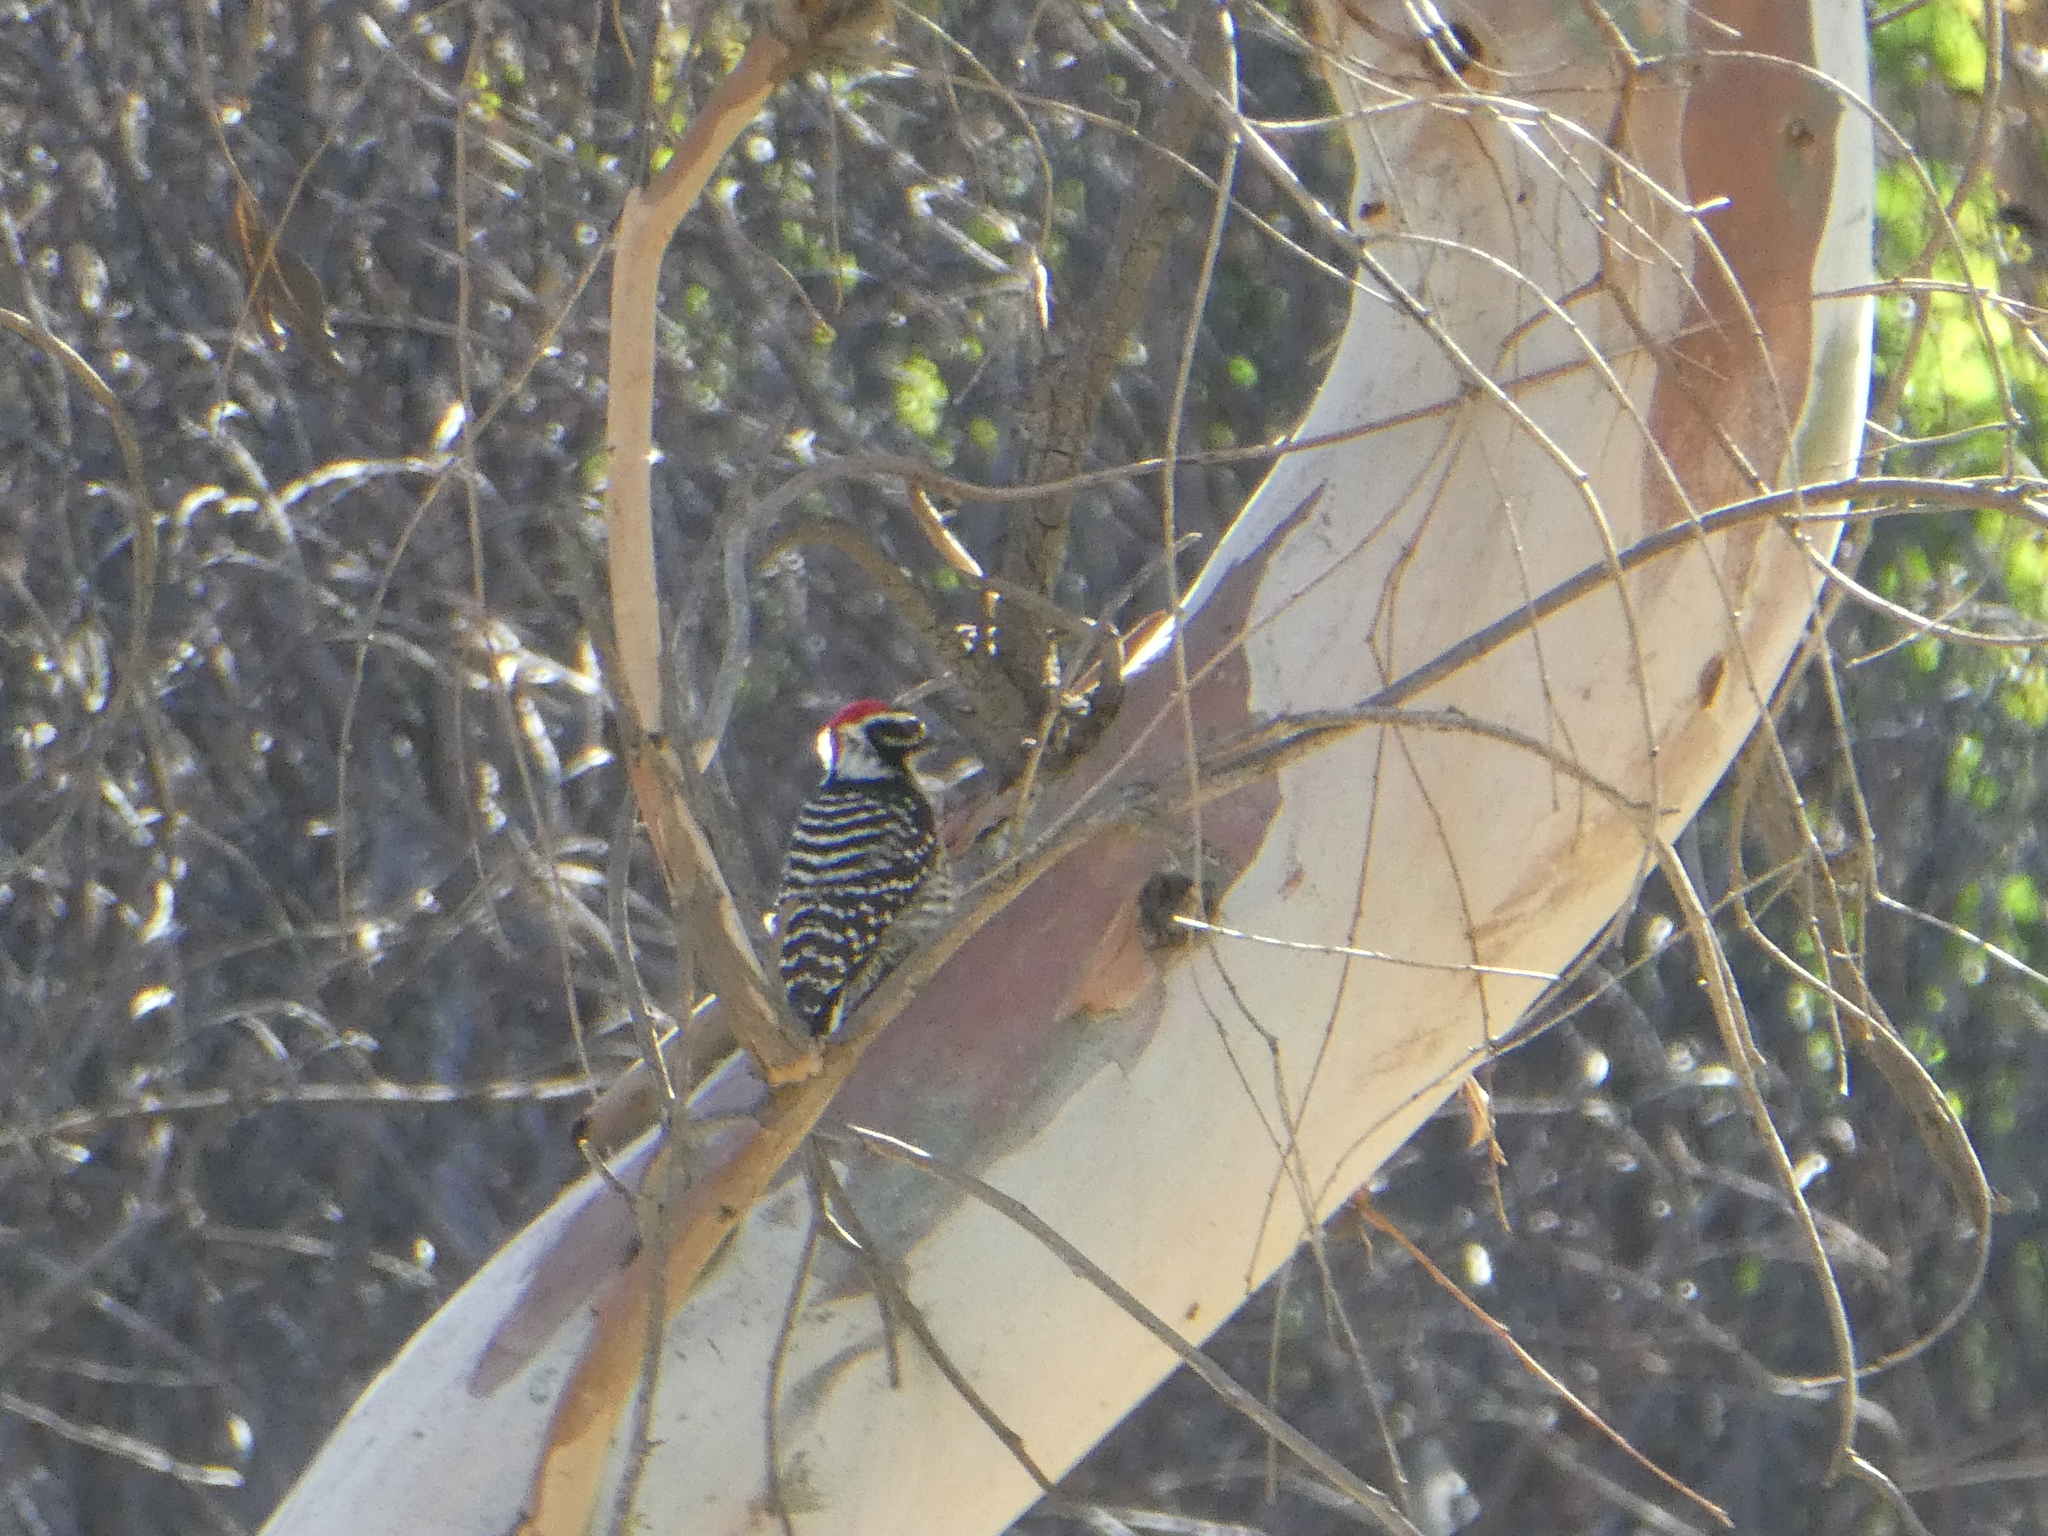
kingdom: Animalia
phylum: Chordata
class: Aves
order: Piciformes
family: Picidae
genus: Dryobates
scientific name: Dryobates nuttallii
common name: Nuttall's woodpecker
